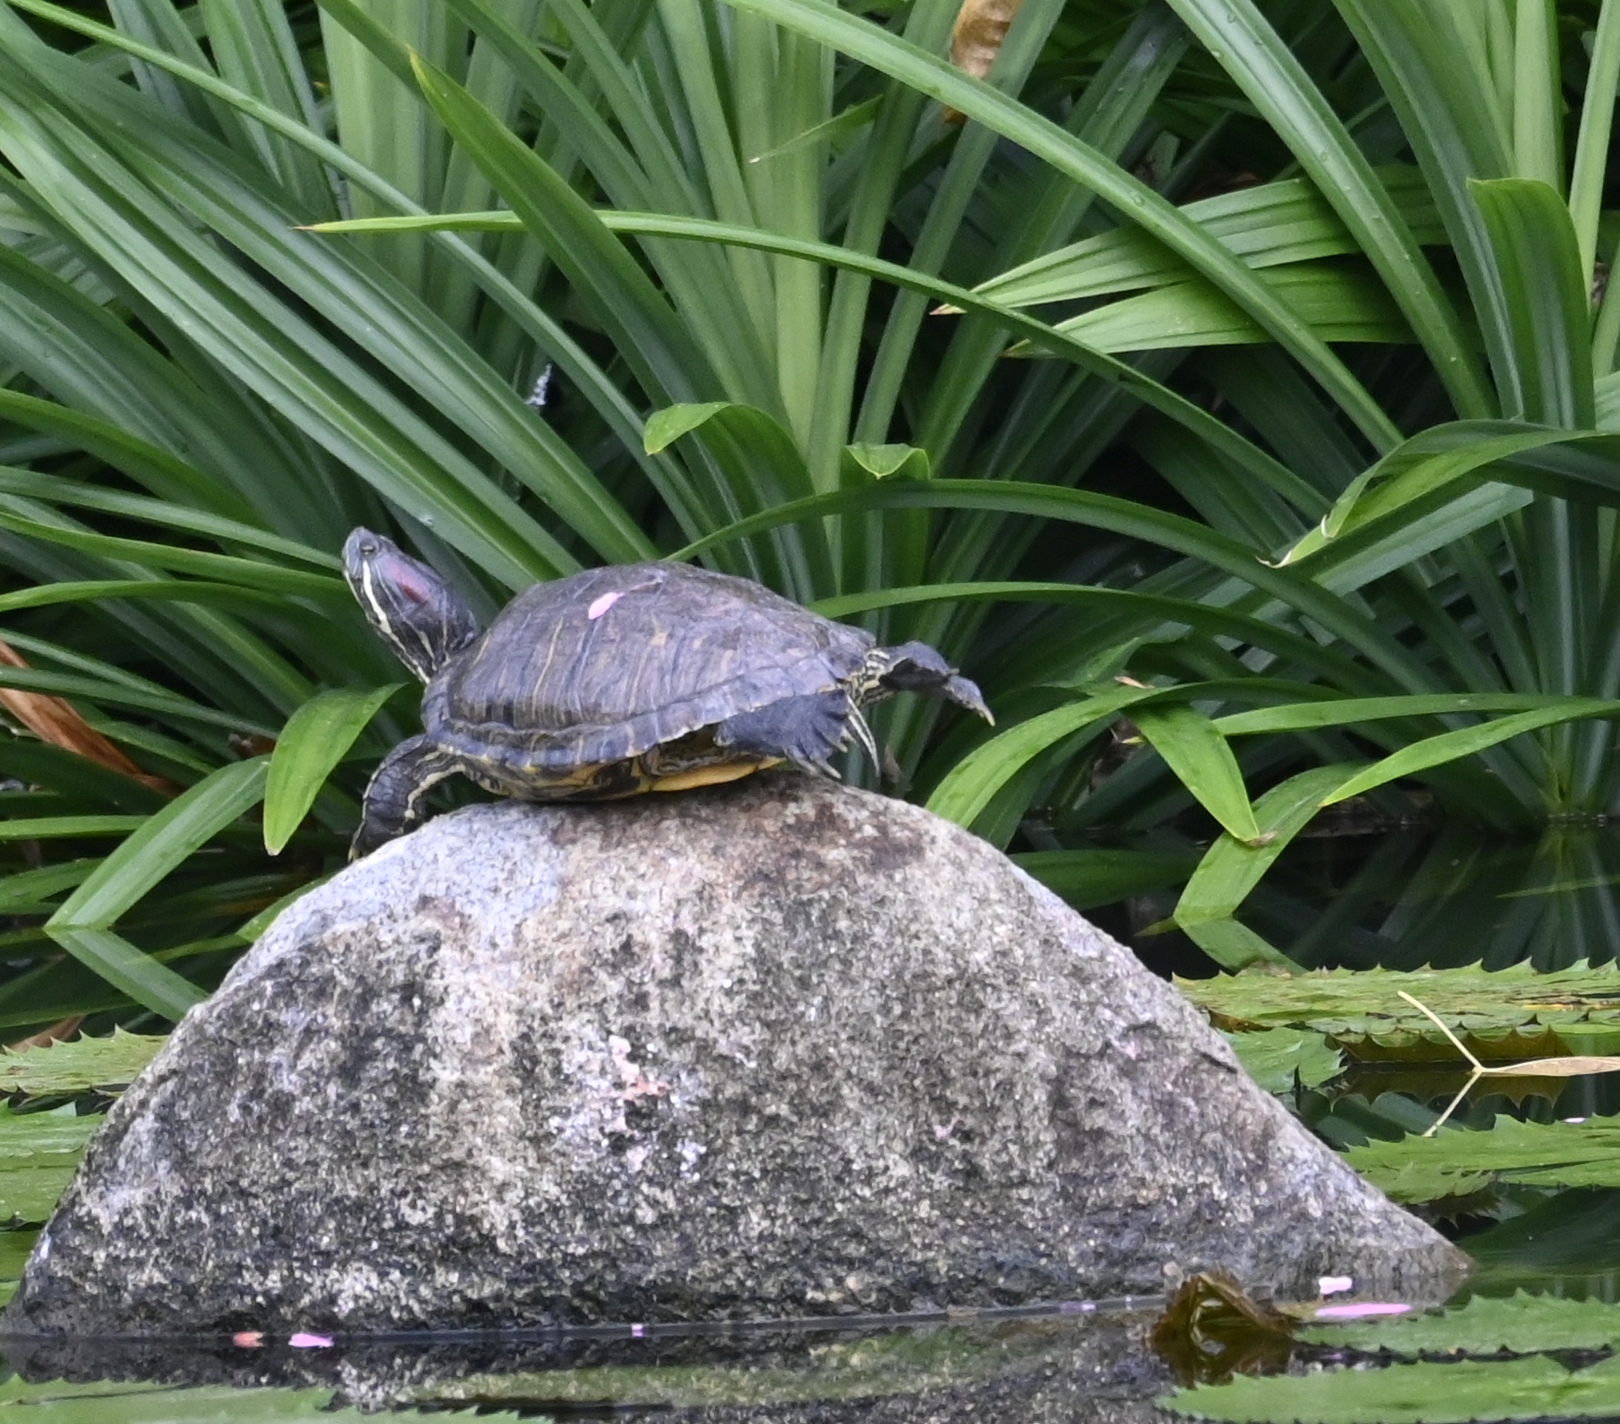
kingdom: Animalia
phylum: Chordata
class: Testudines
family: Emydidae
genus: Trachemys
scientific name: Trachemys scripta
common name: Slider
